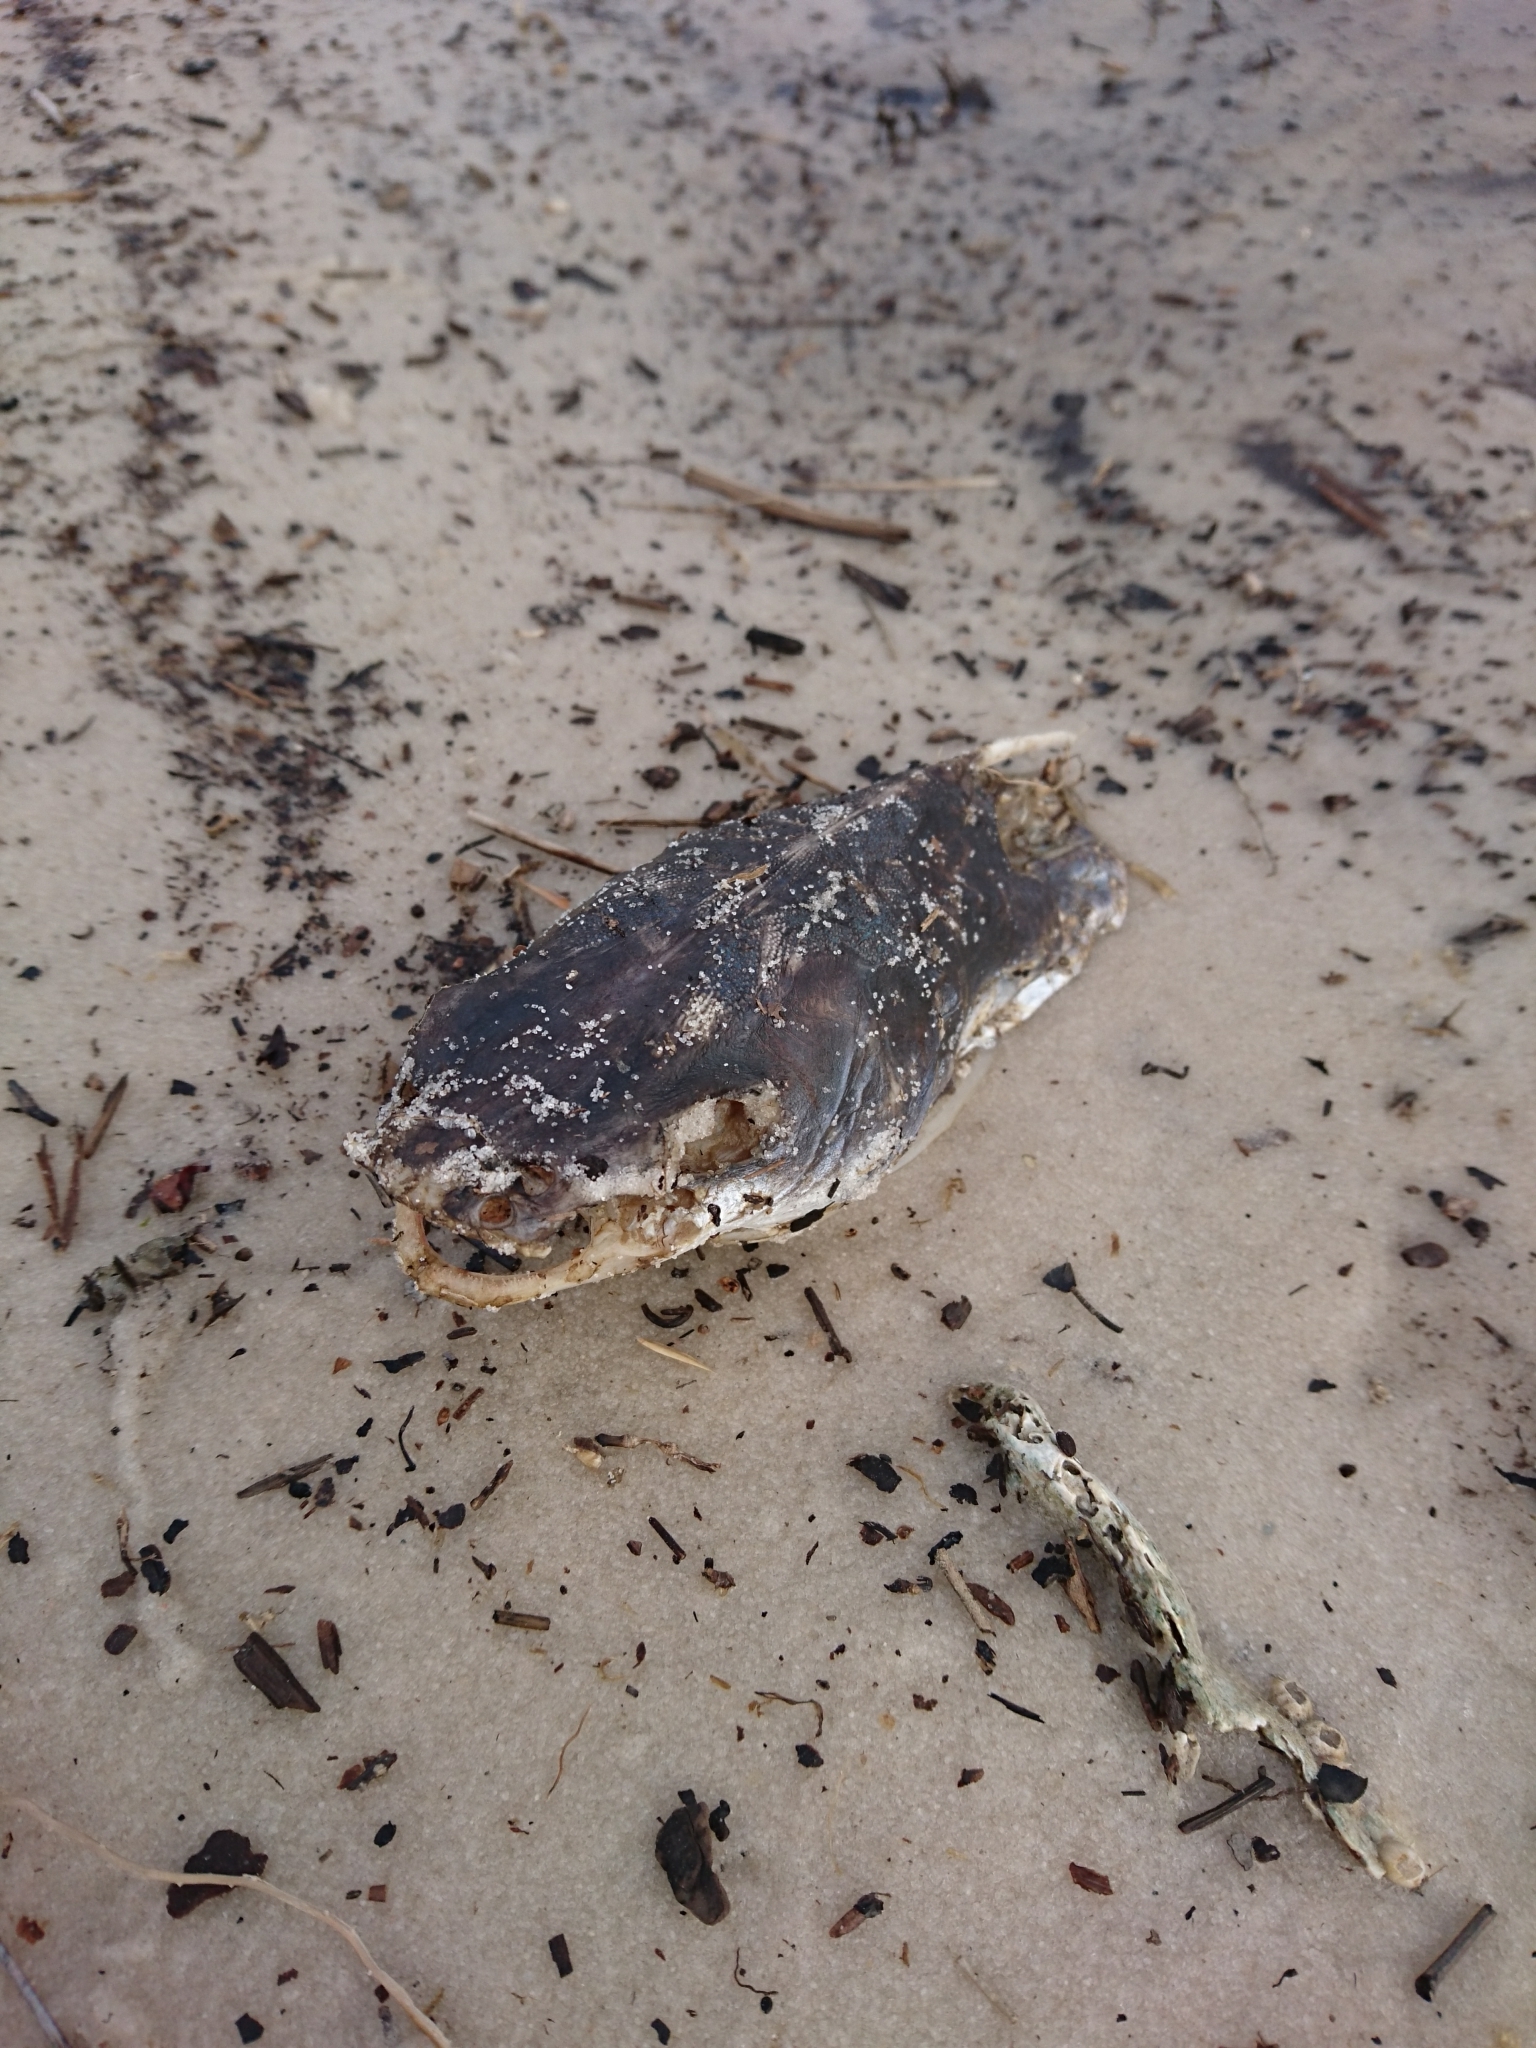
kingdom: Animalia
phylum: Chordata
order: Siluriformes
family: Ariidae
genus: Ariopsis
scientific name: Ariopsis felis
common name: Hardhead catfish
